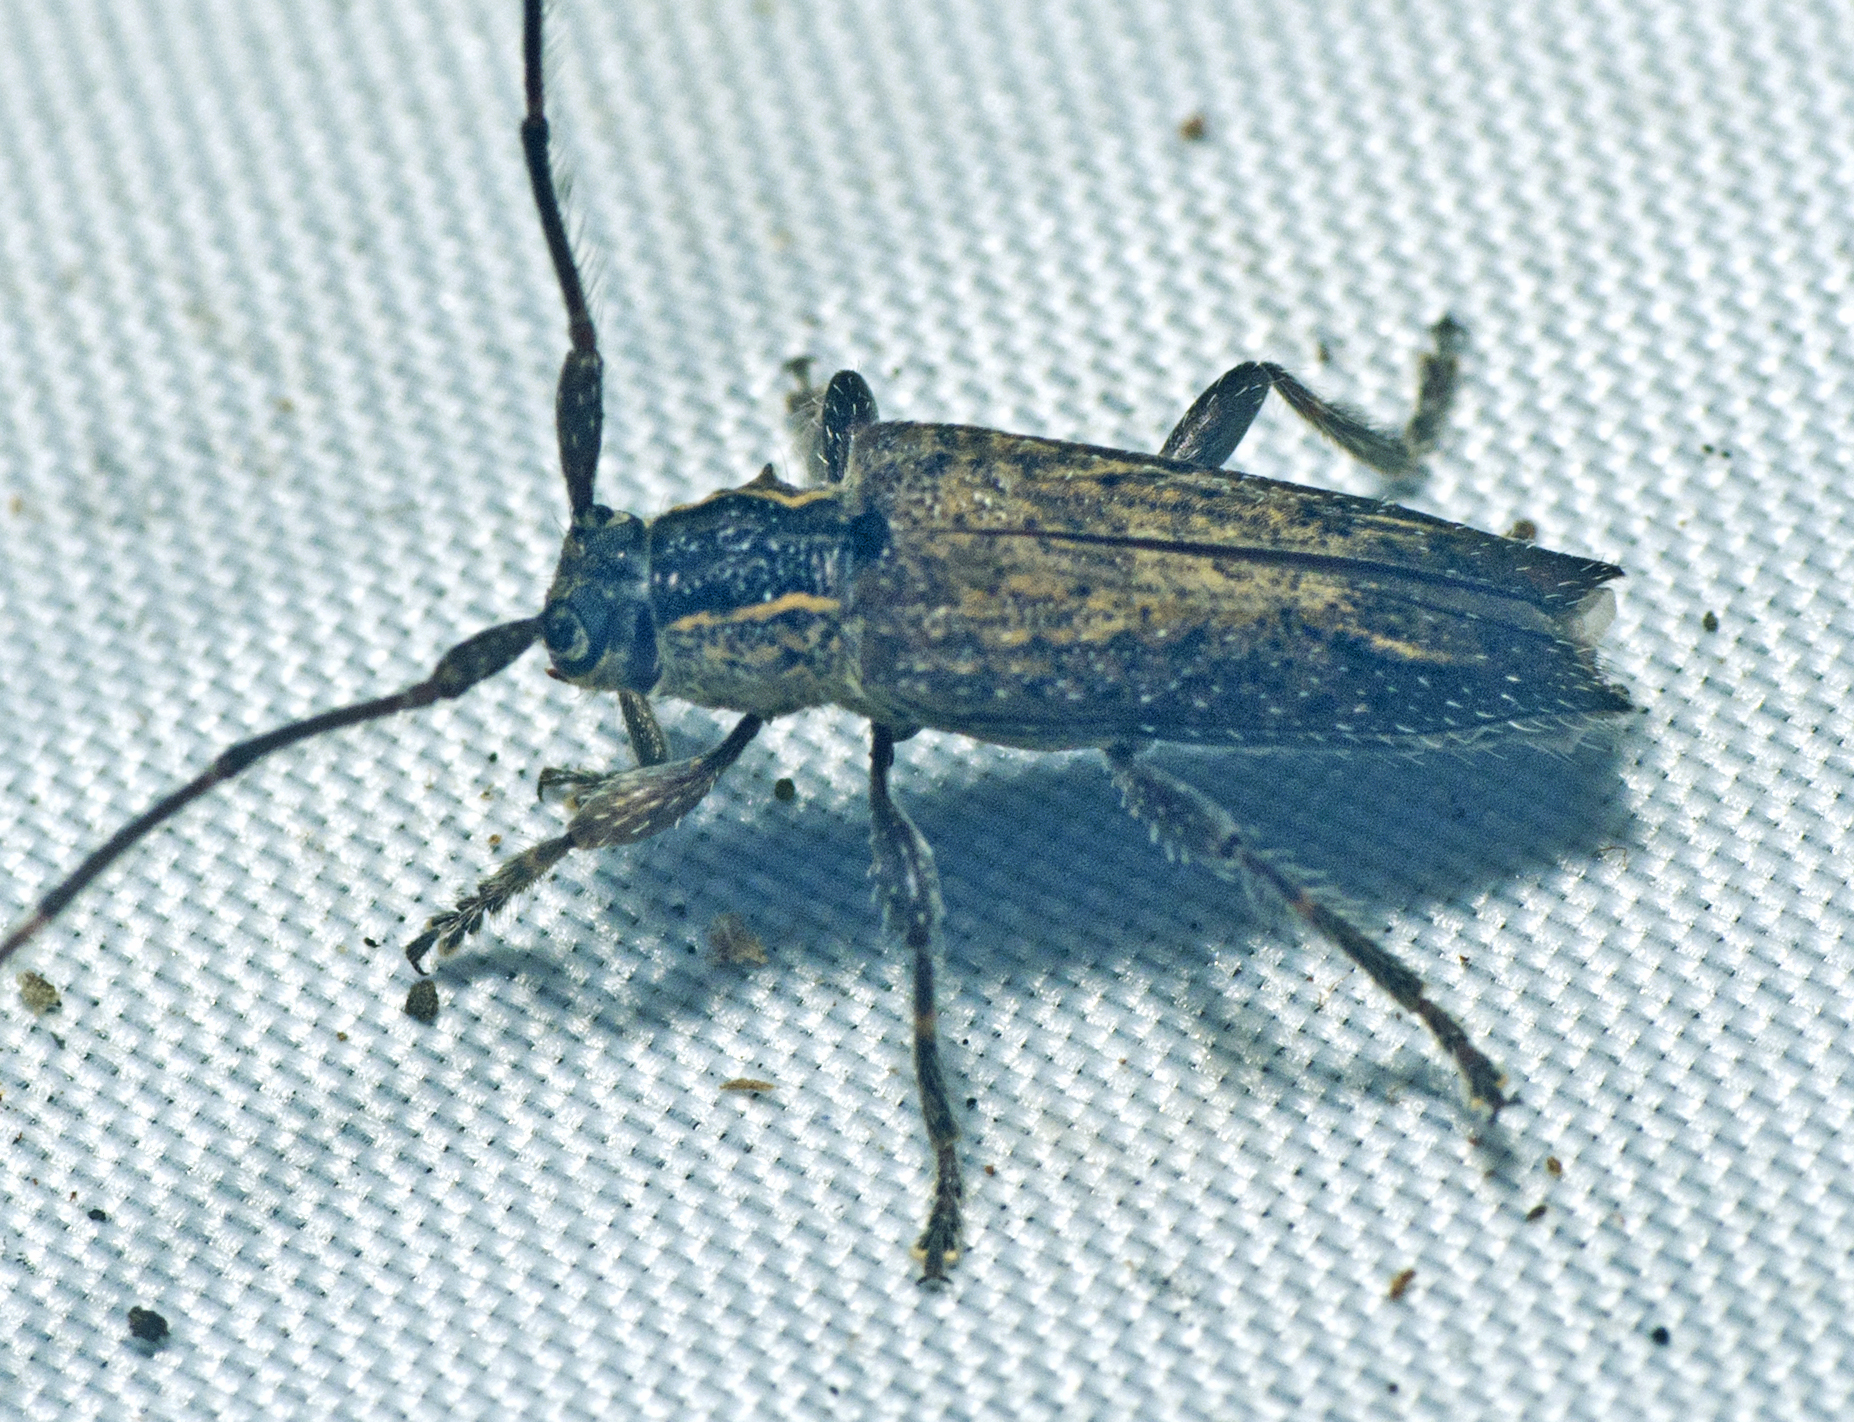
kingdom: Animalia
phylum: Arthropoda
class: Insecta
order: Coleoptera
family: Cerambycidae
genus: Didymocentrotus
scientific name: Didymocentrotus denticollis
